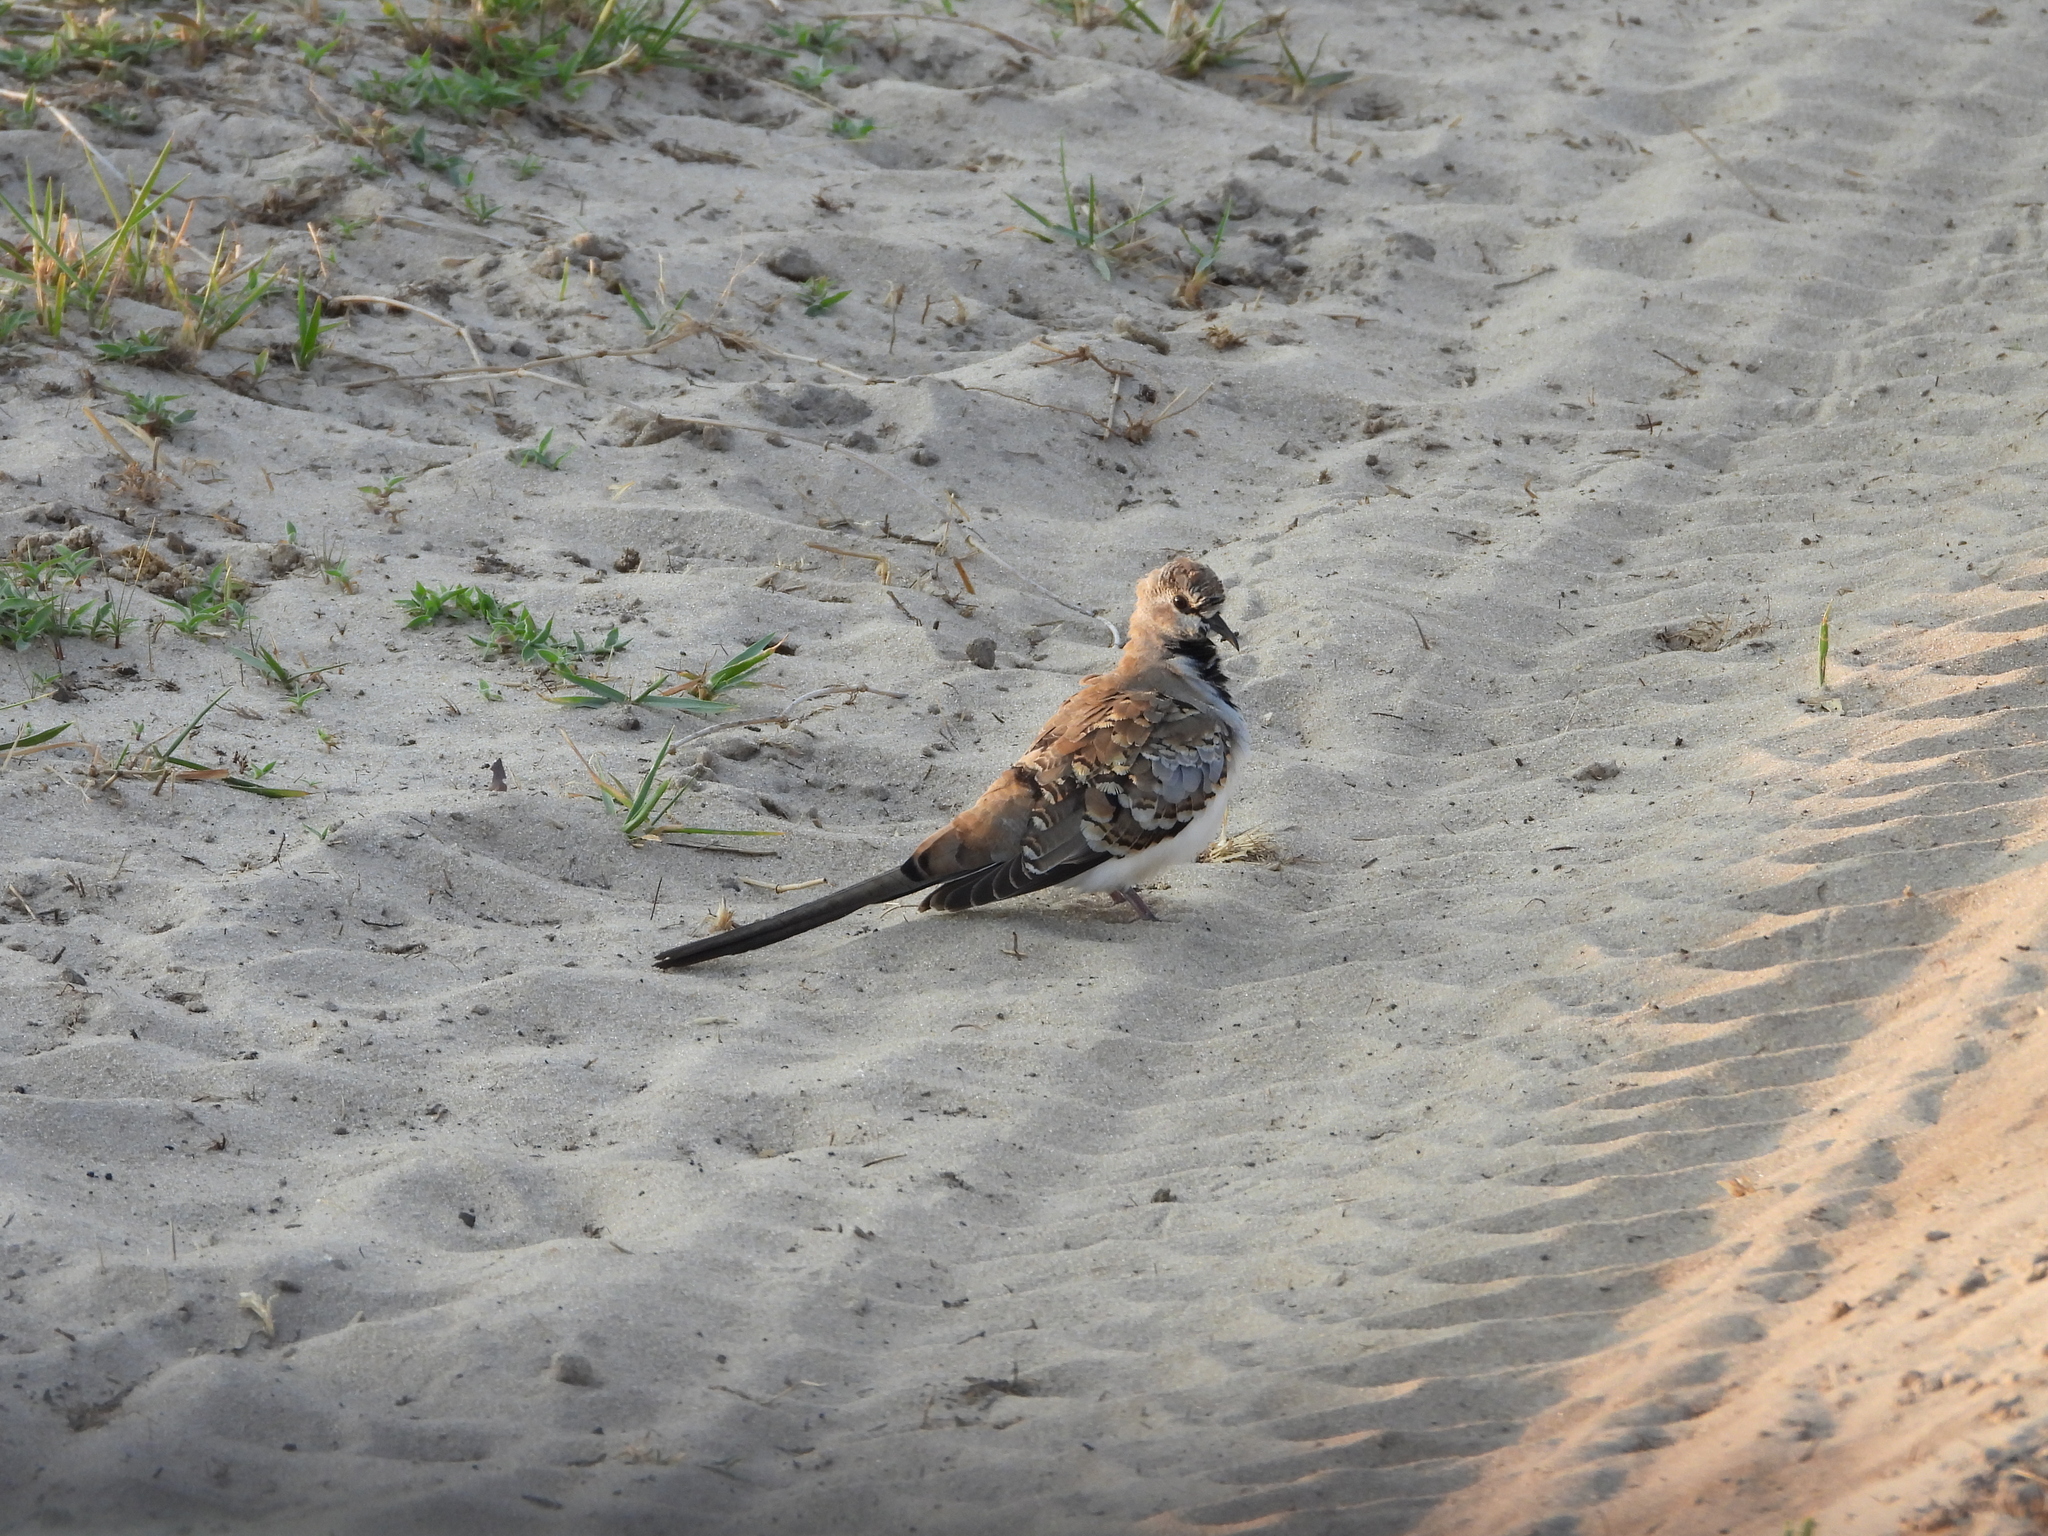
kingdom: Animalia
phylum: Chordata
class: Aves
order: Columbiformes
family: Columbidae
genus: Oena
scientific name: Oena capensis
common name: Namaqua dove
